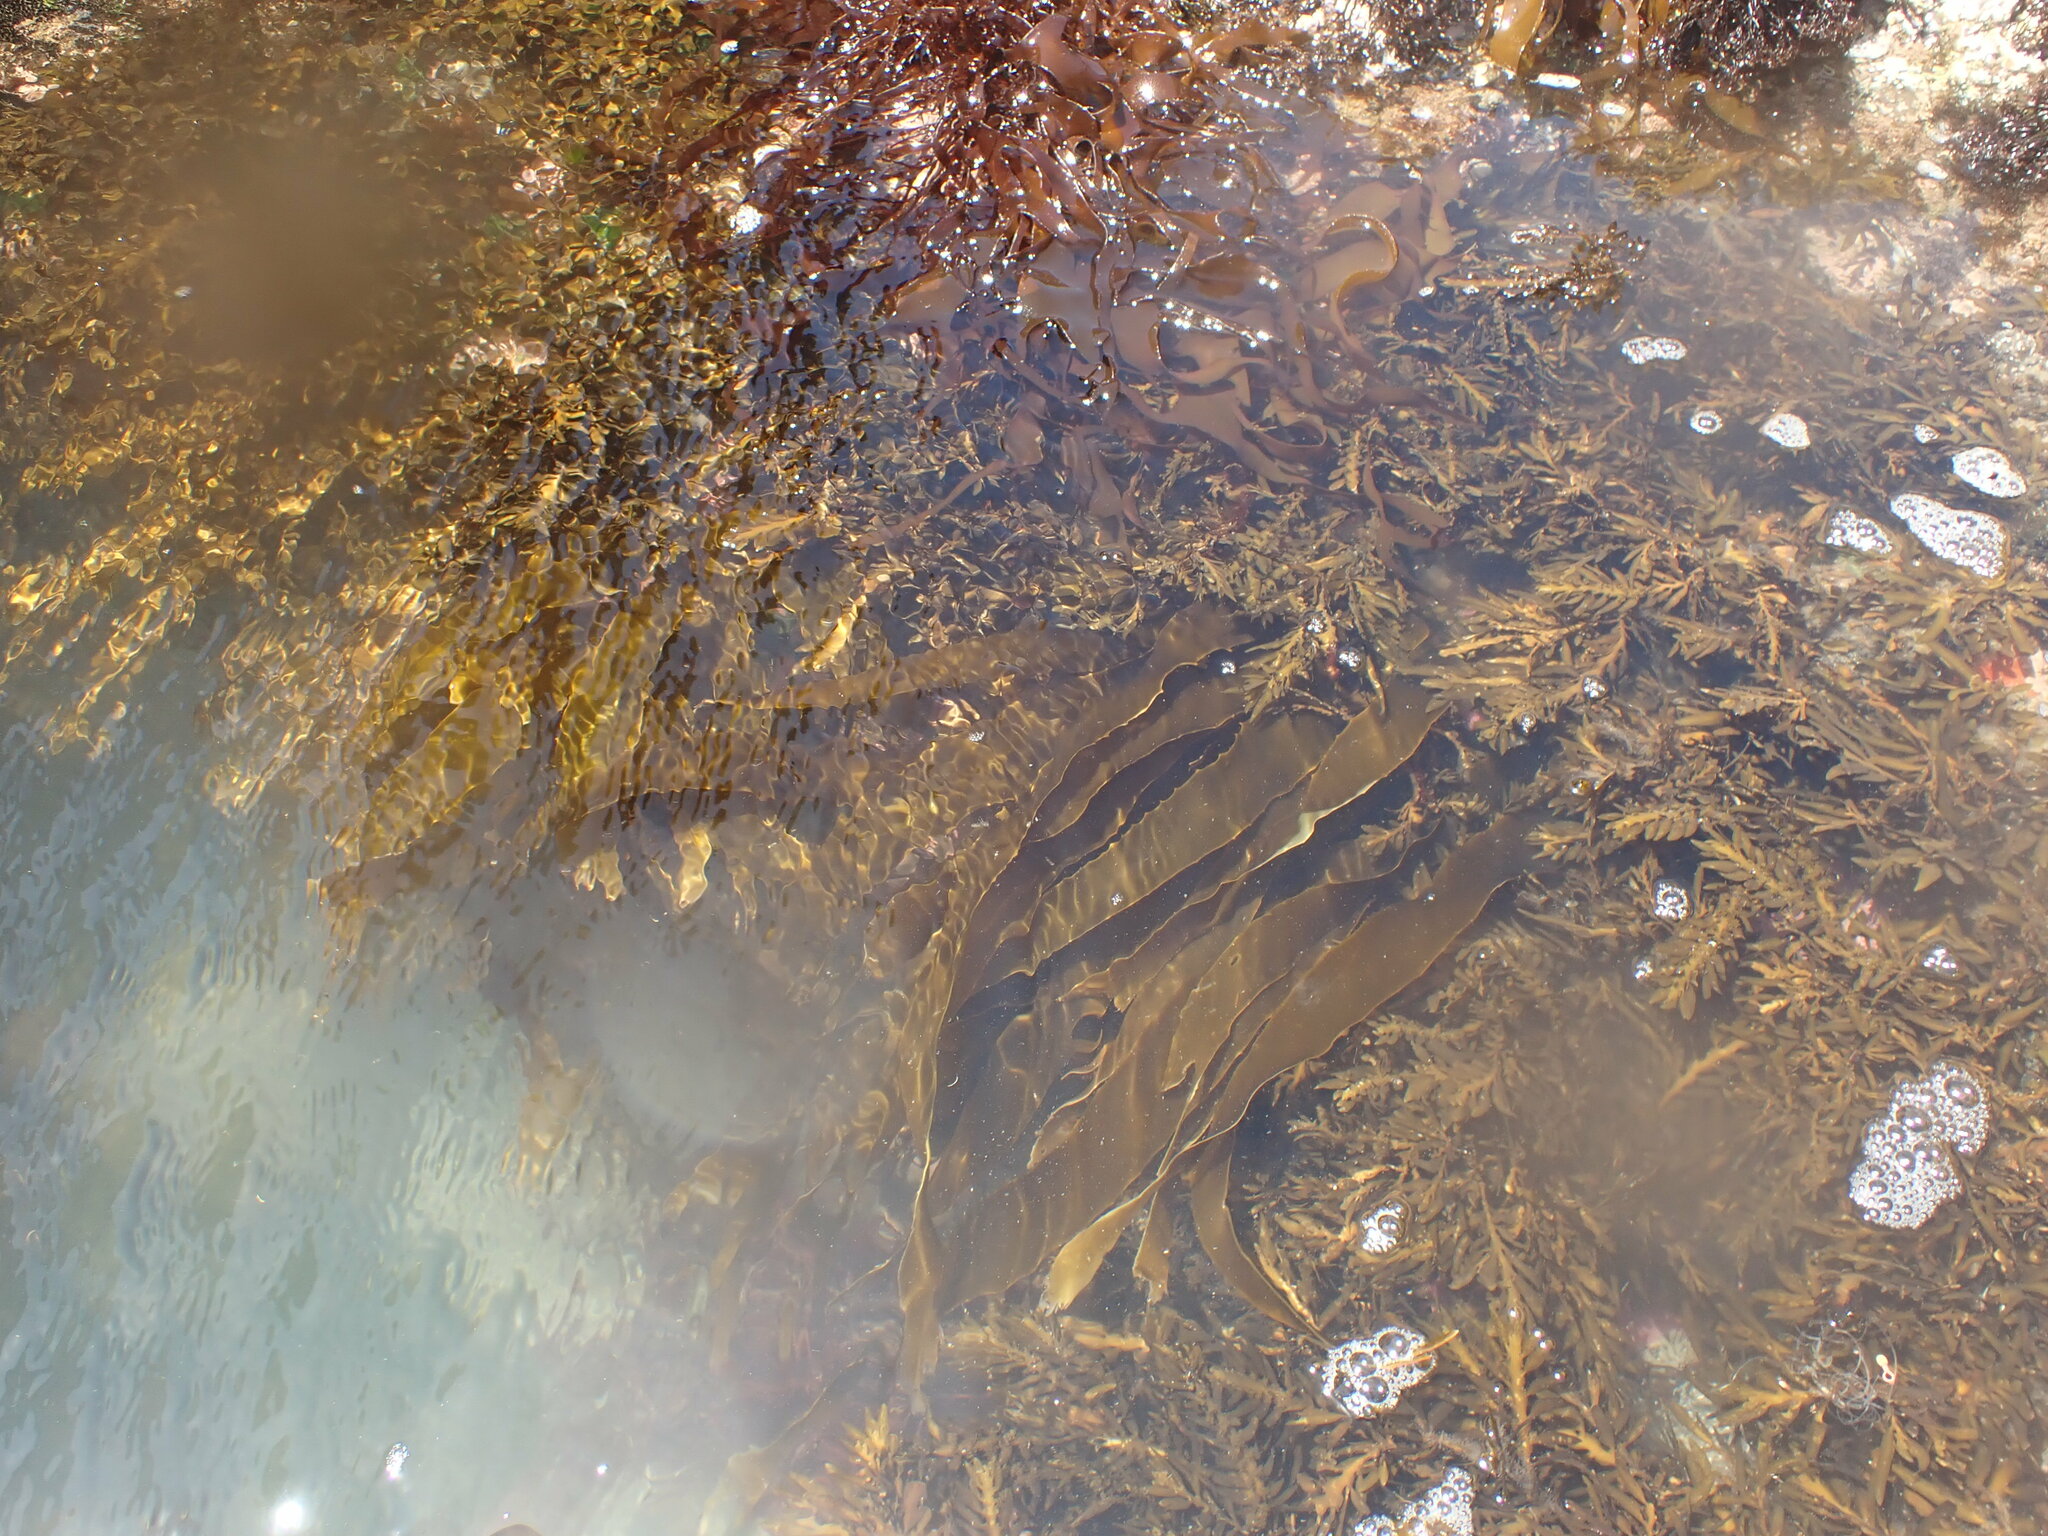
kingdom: Chromista
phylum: Ochrophyta
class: Phaeophyceae
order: Fucales
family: Sargassaceae
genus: Carpophyllum
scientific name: Carpophyllum maschalocarpum
